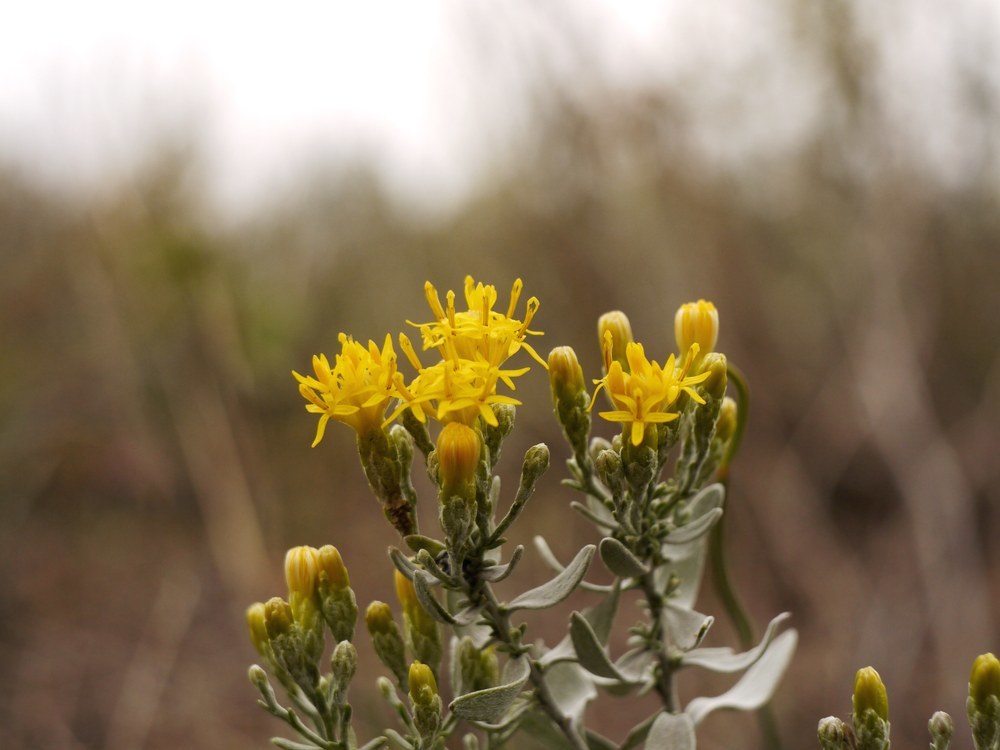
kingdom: Plantae
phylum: Tracheophyta
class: Magnoliopsida
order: Asterales
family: Asteraceae
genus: Galatella
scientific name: Galatella villosa
